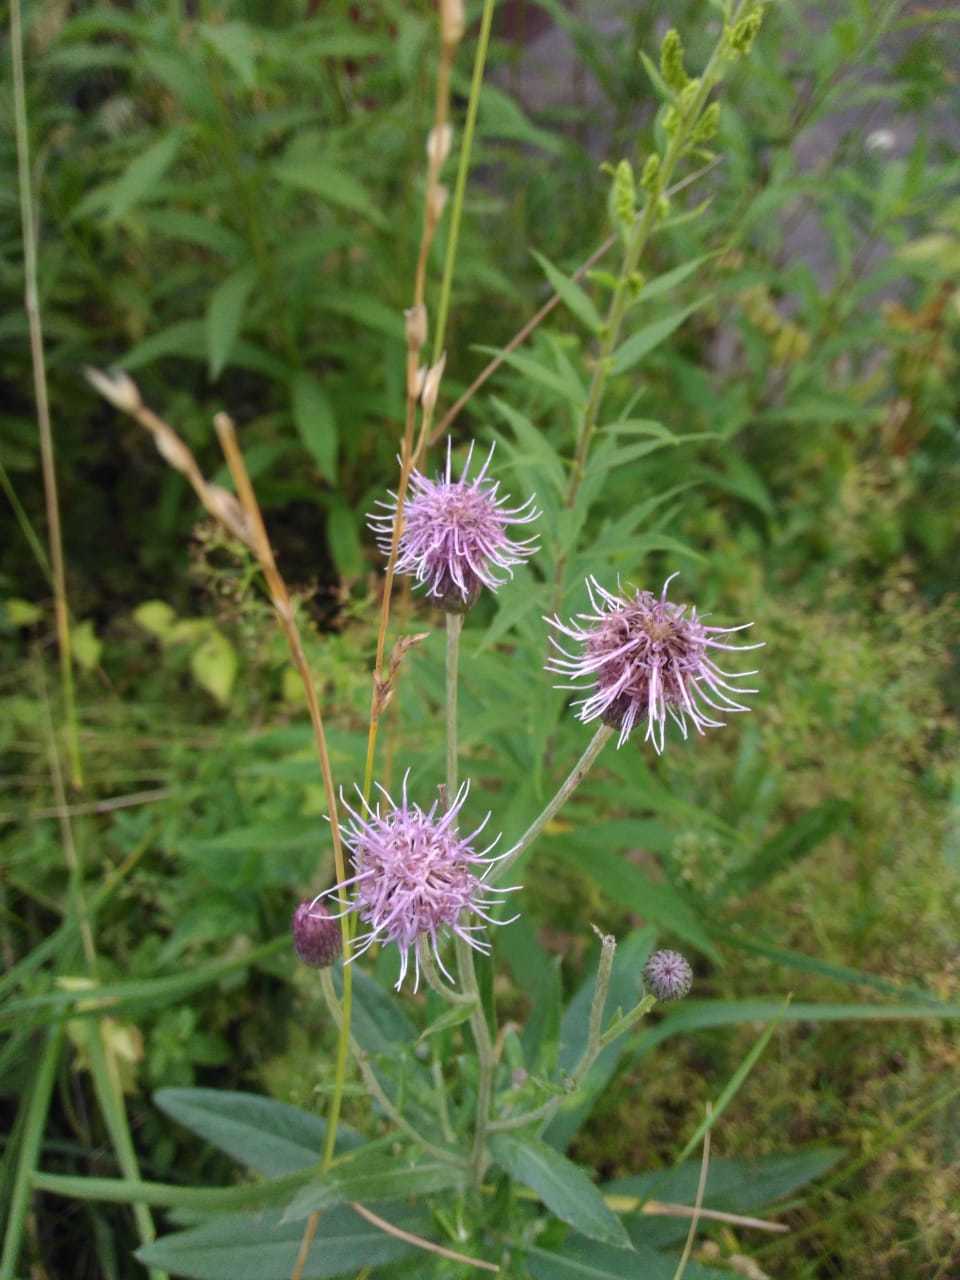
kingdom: Plantae
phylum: Tracheophyta
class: Magnoliopsida
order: Asterales
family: Asteraceae
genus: Cirsium
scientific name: Cirsium arvense
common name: Creeping thistle
